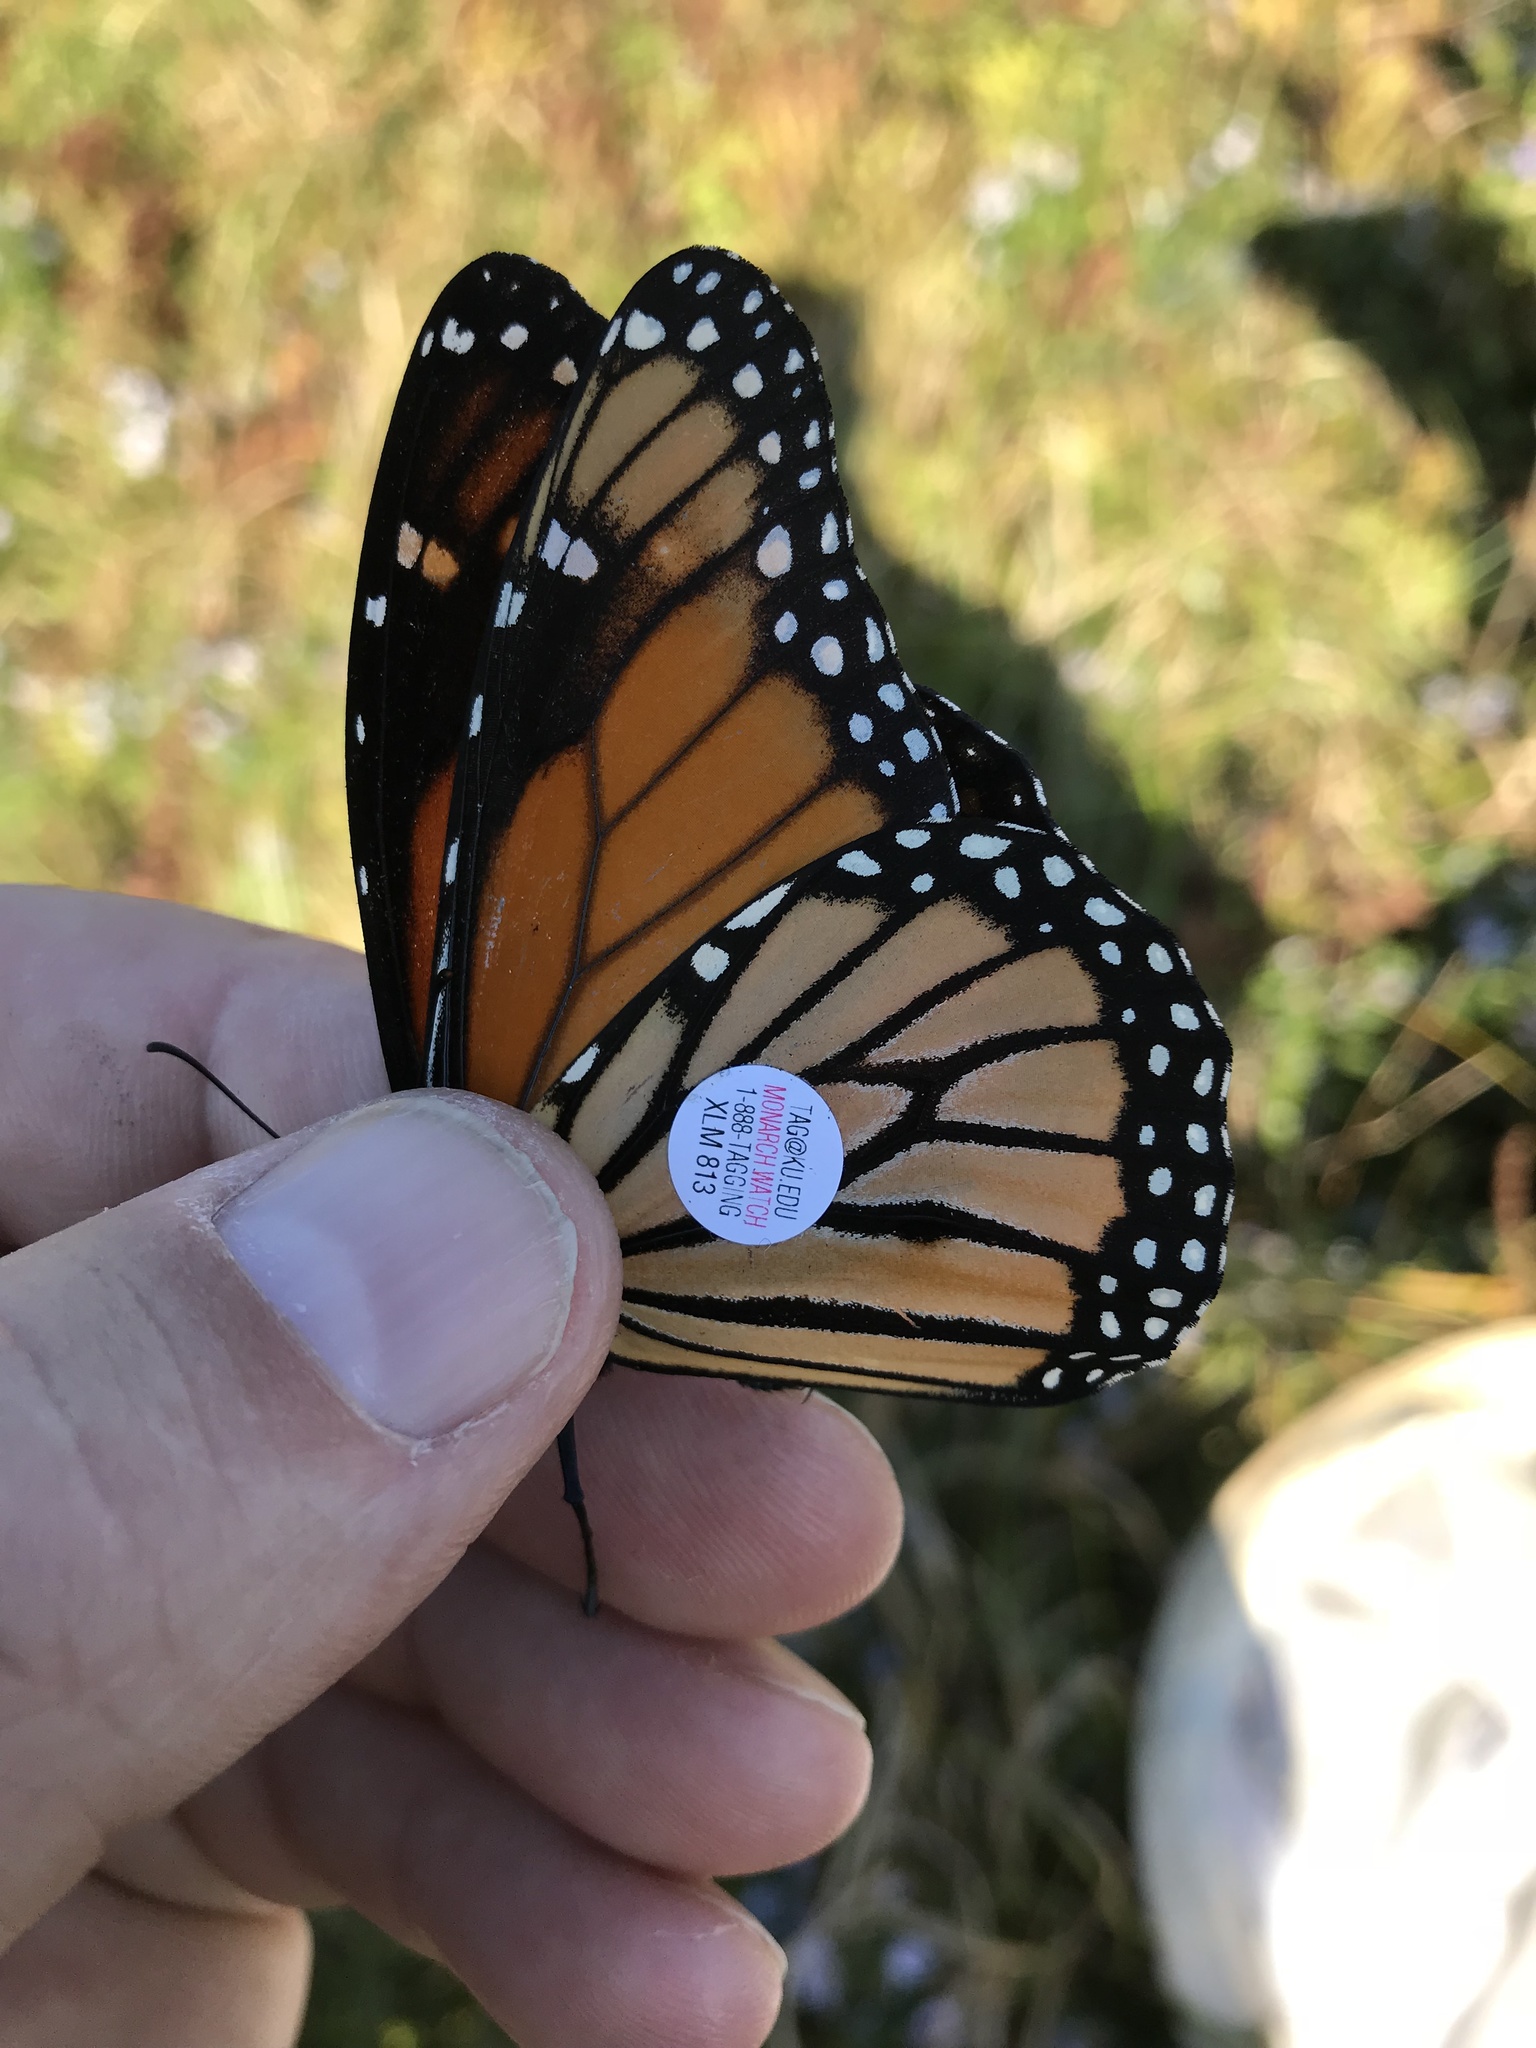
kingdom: Animalia
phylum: Arthropoda
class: Insecta
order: Lepidoptera
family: Nymphalidae
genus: Danaus
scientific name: Danaus plexippus
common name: Monarch
